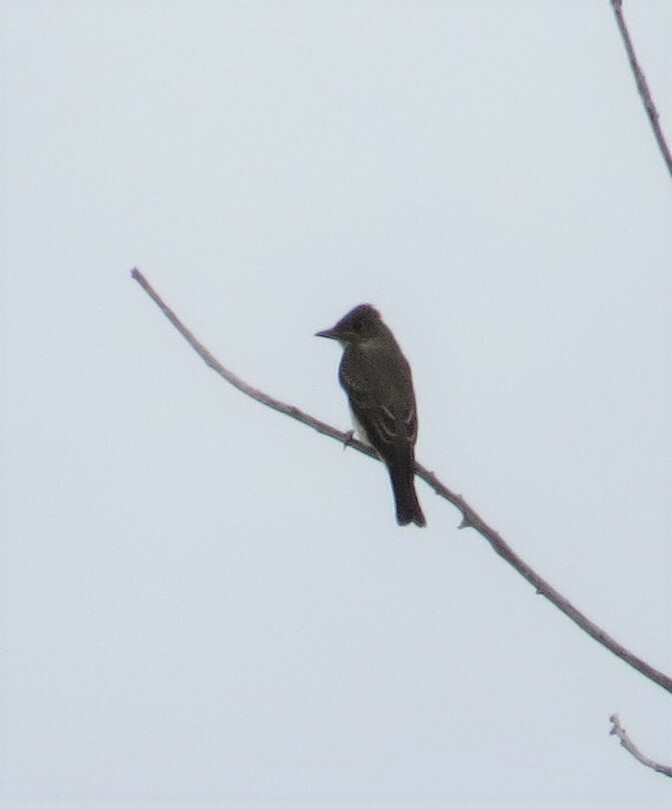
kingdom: Animalia
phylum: Chordata
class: Aves
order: Passeriformes
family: Tyrannidae
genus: Contopus
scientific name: Contopus virens
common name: Eastern wood-pewee
